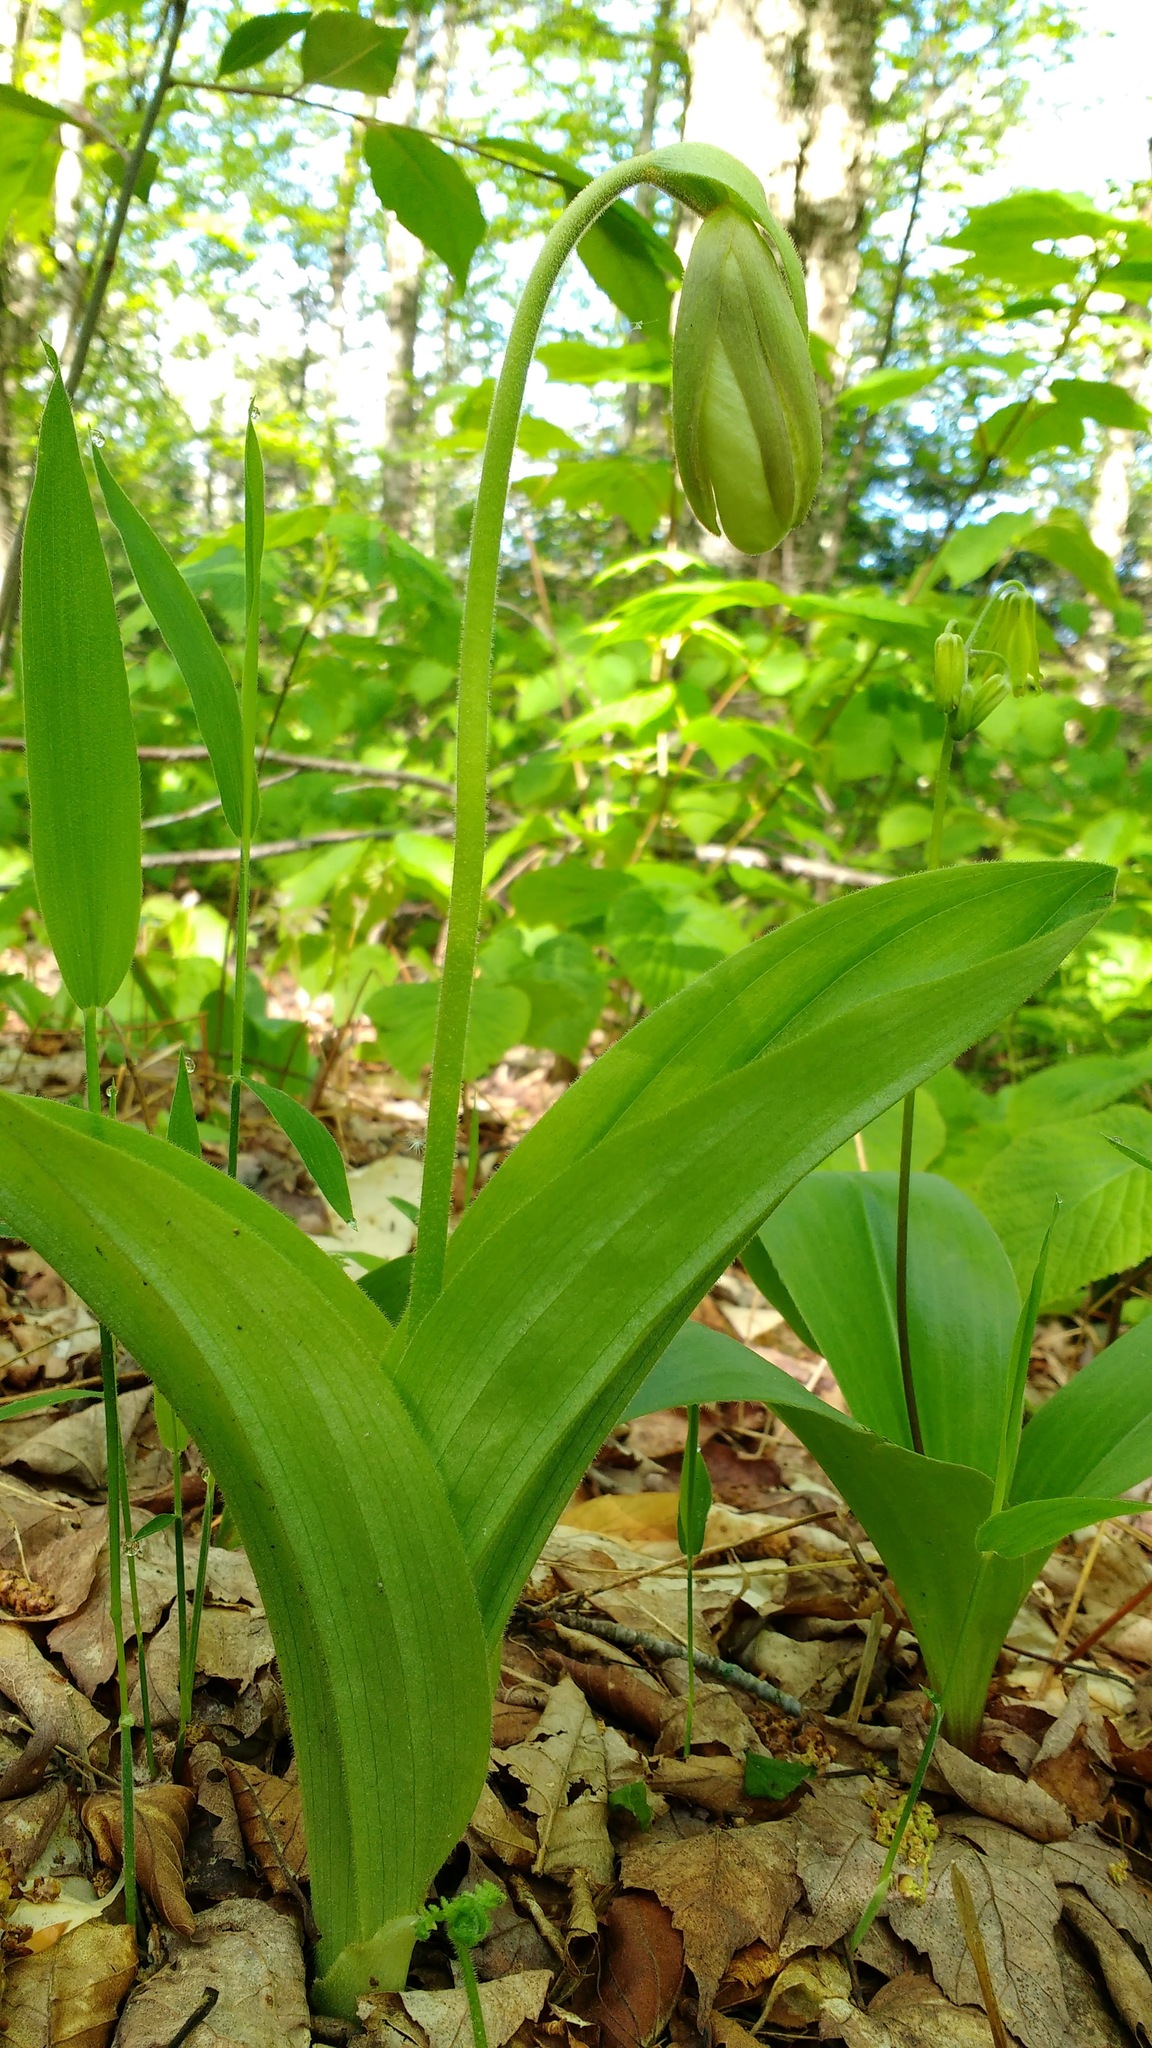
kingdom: Plantae
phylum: Tracheophyta
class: Liliopsida
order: Asparagales
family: Orchidaceae
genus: Cypripedium
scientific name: Cypripedium acaule
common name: Pink lady's-slipper
